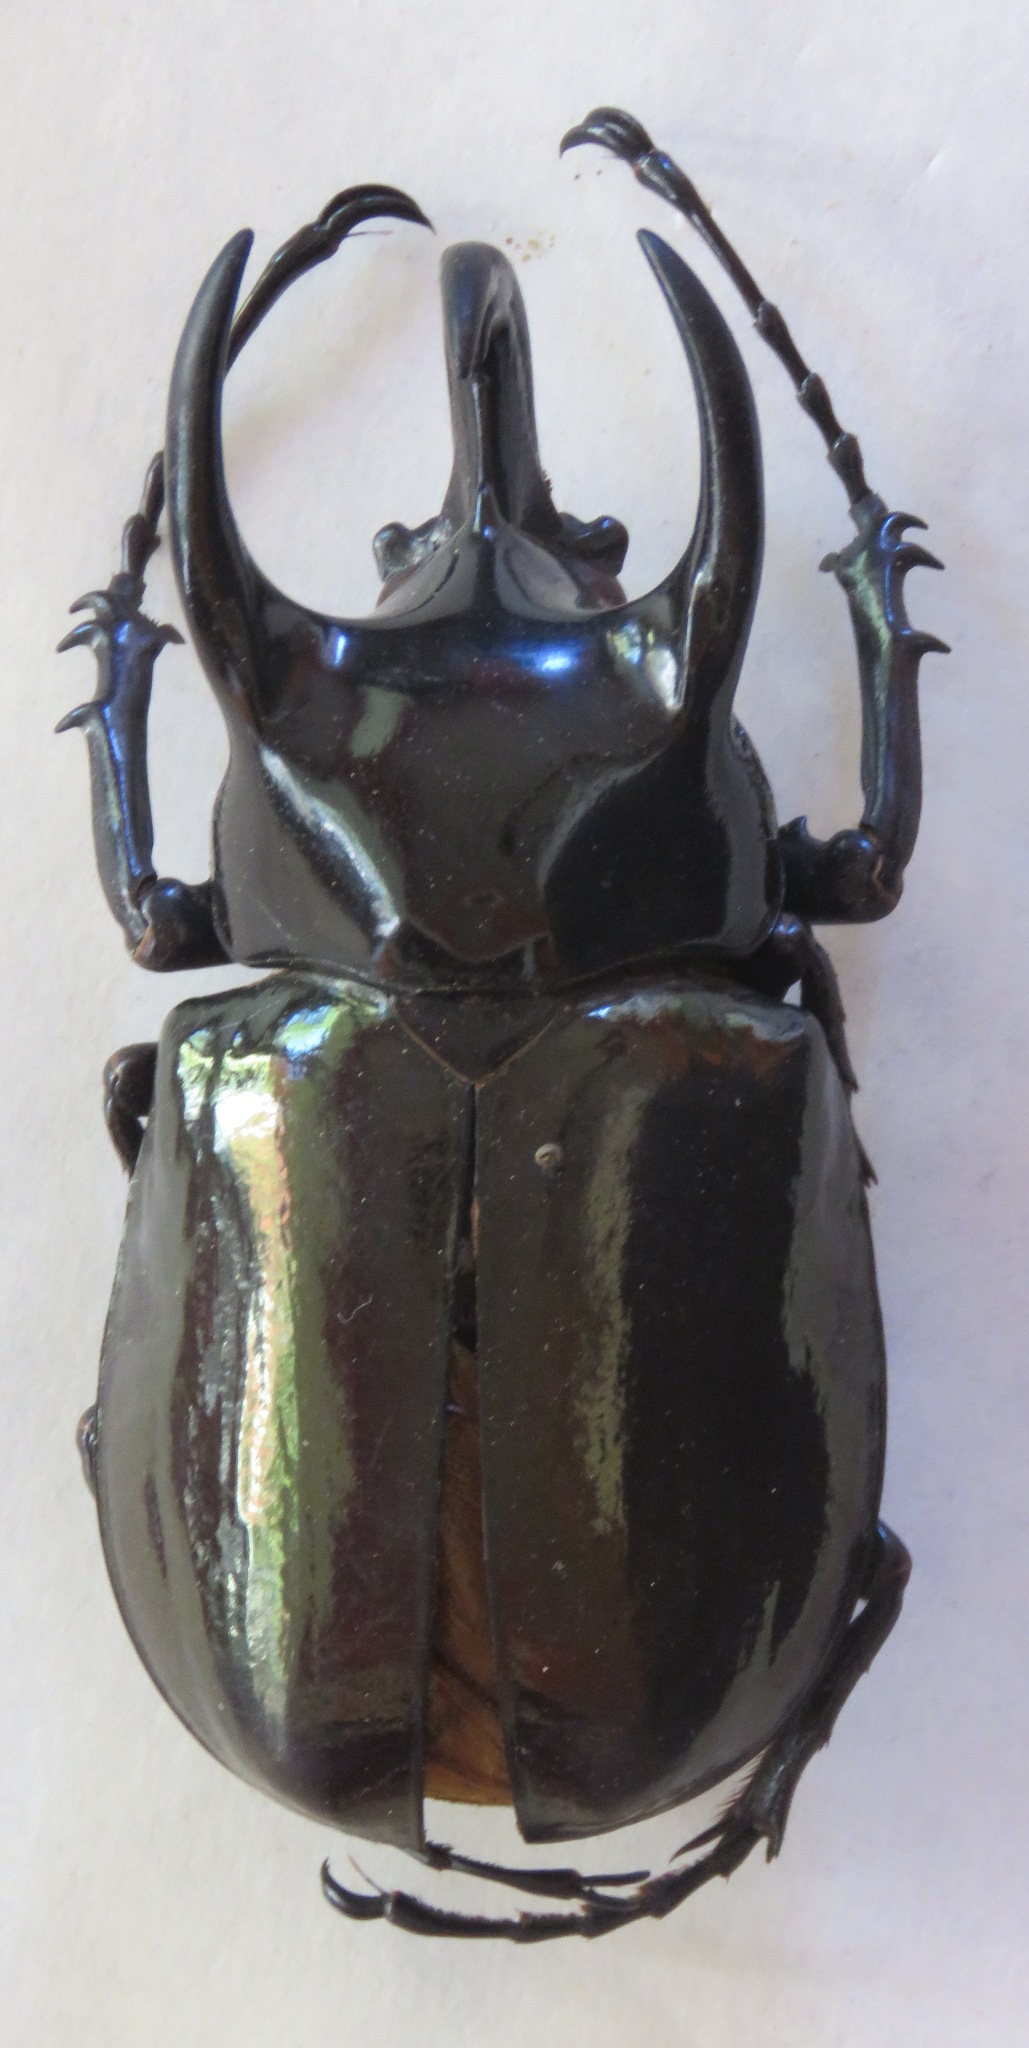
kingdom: Animalia
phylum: Arthropoda
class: Insecta
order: Coleoptera
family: Scarabaeidae
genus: Chalcosoma
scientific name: Chalcosoma chiron
